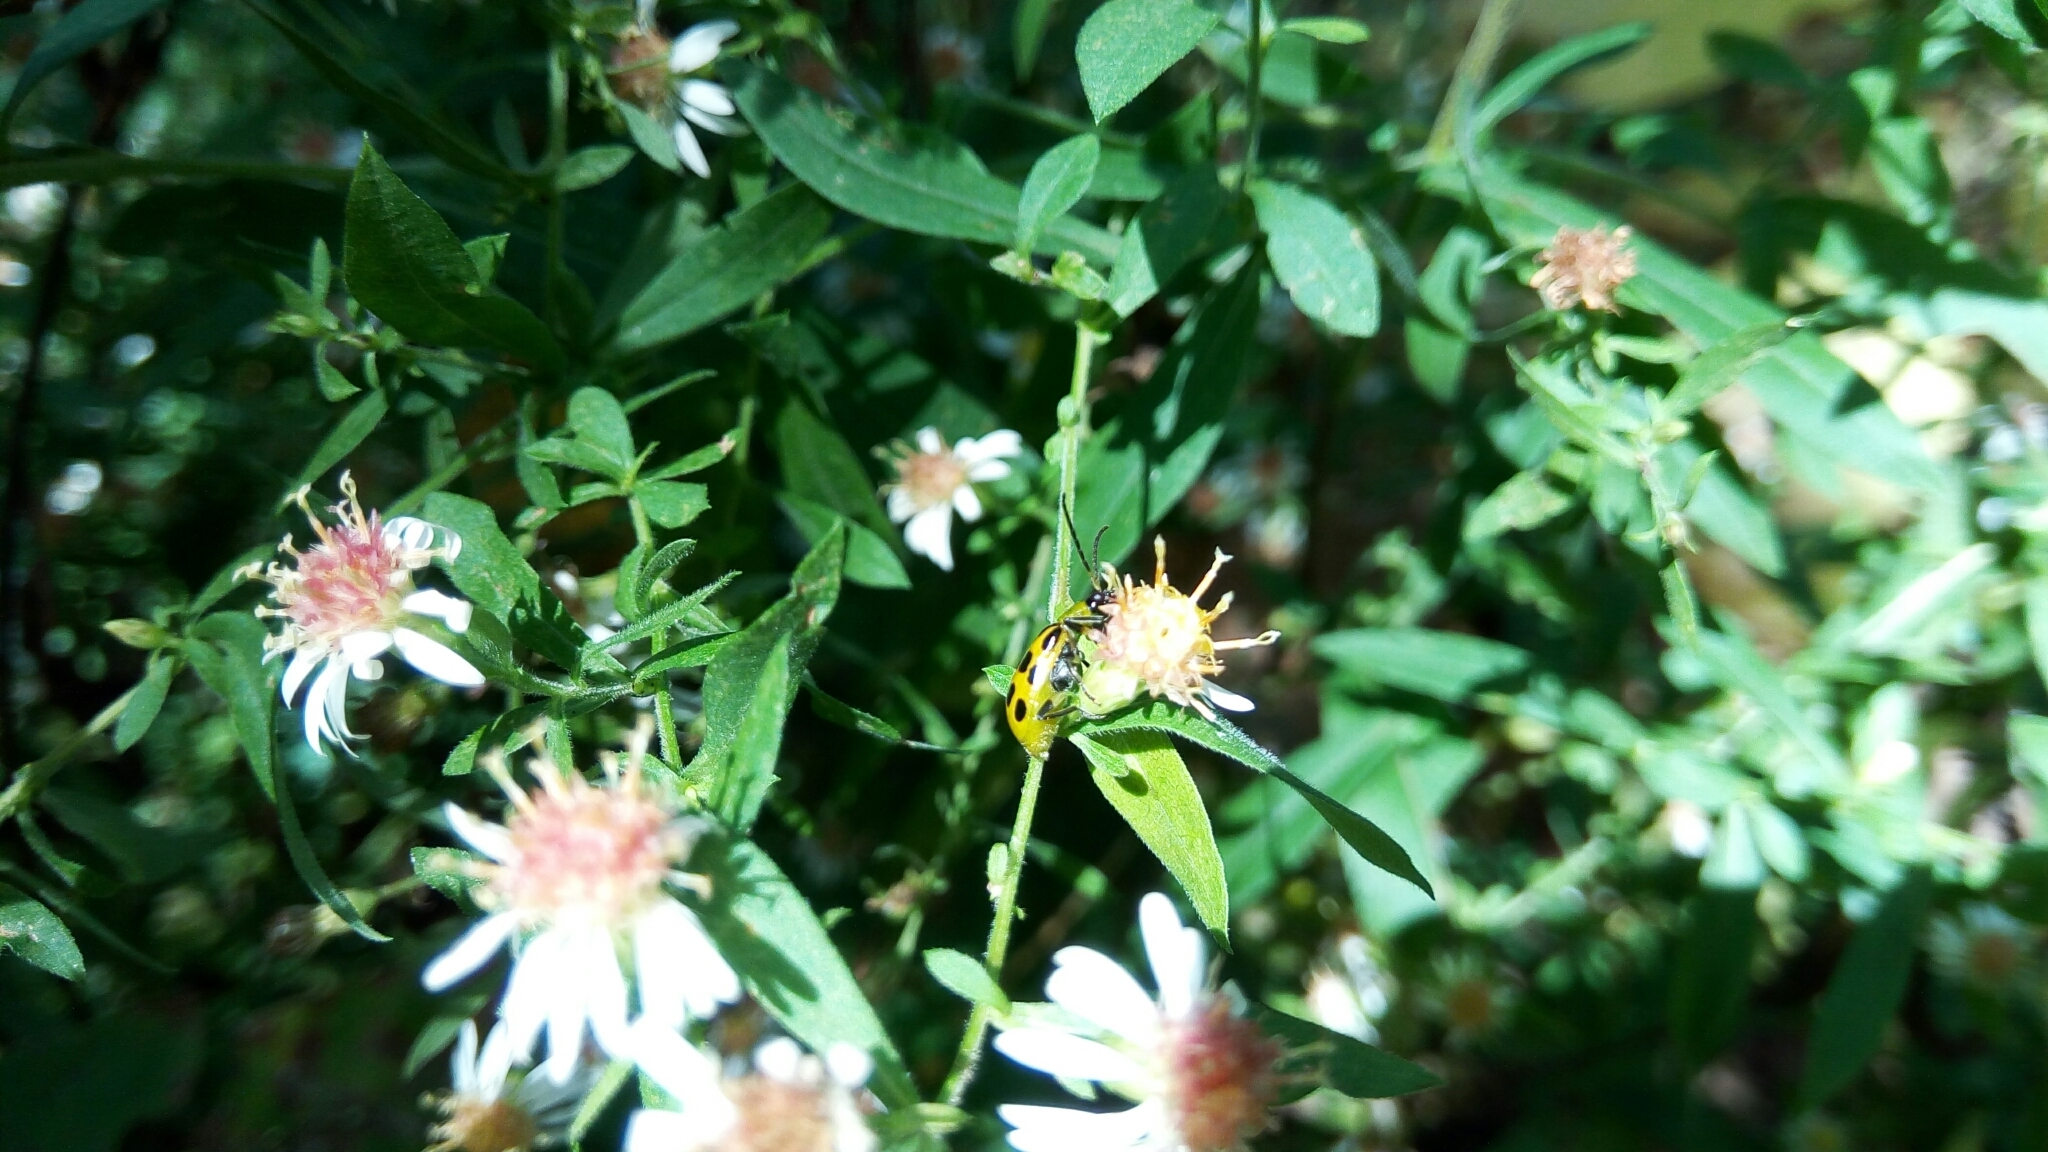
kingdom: Animalia
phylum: Arthropoda
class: Insecta
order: Coleoptera
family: Chrysomelidae
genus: Diabrotica
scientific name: Diabrotica undecimpunctata
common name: Spotted cucumber beetle
